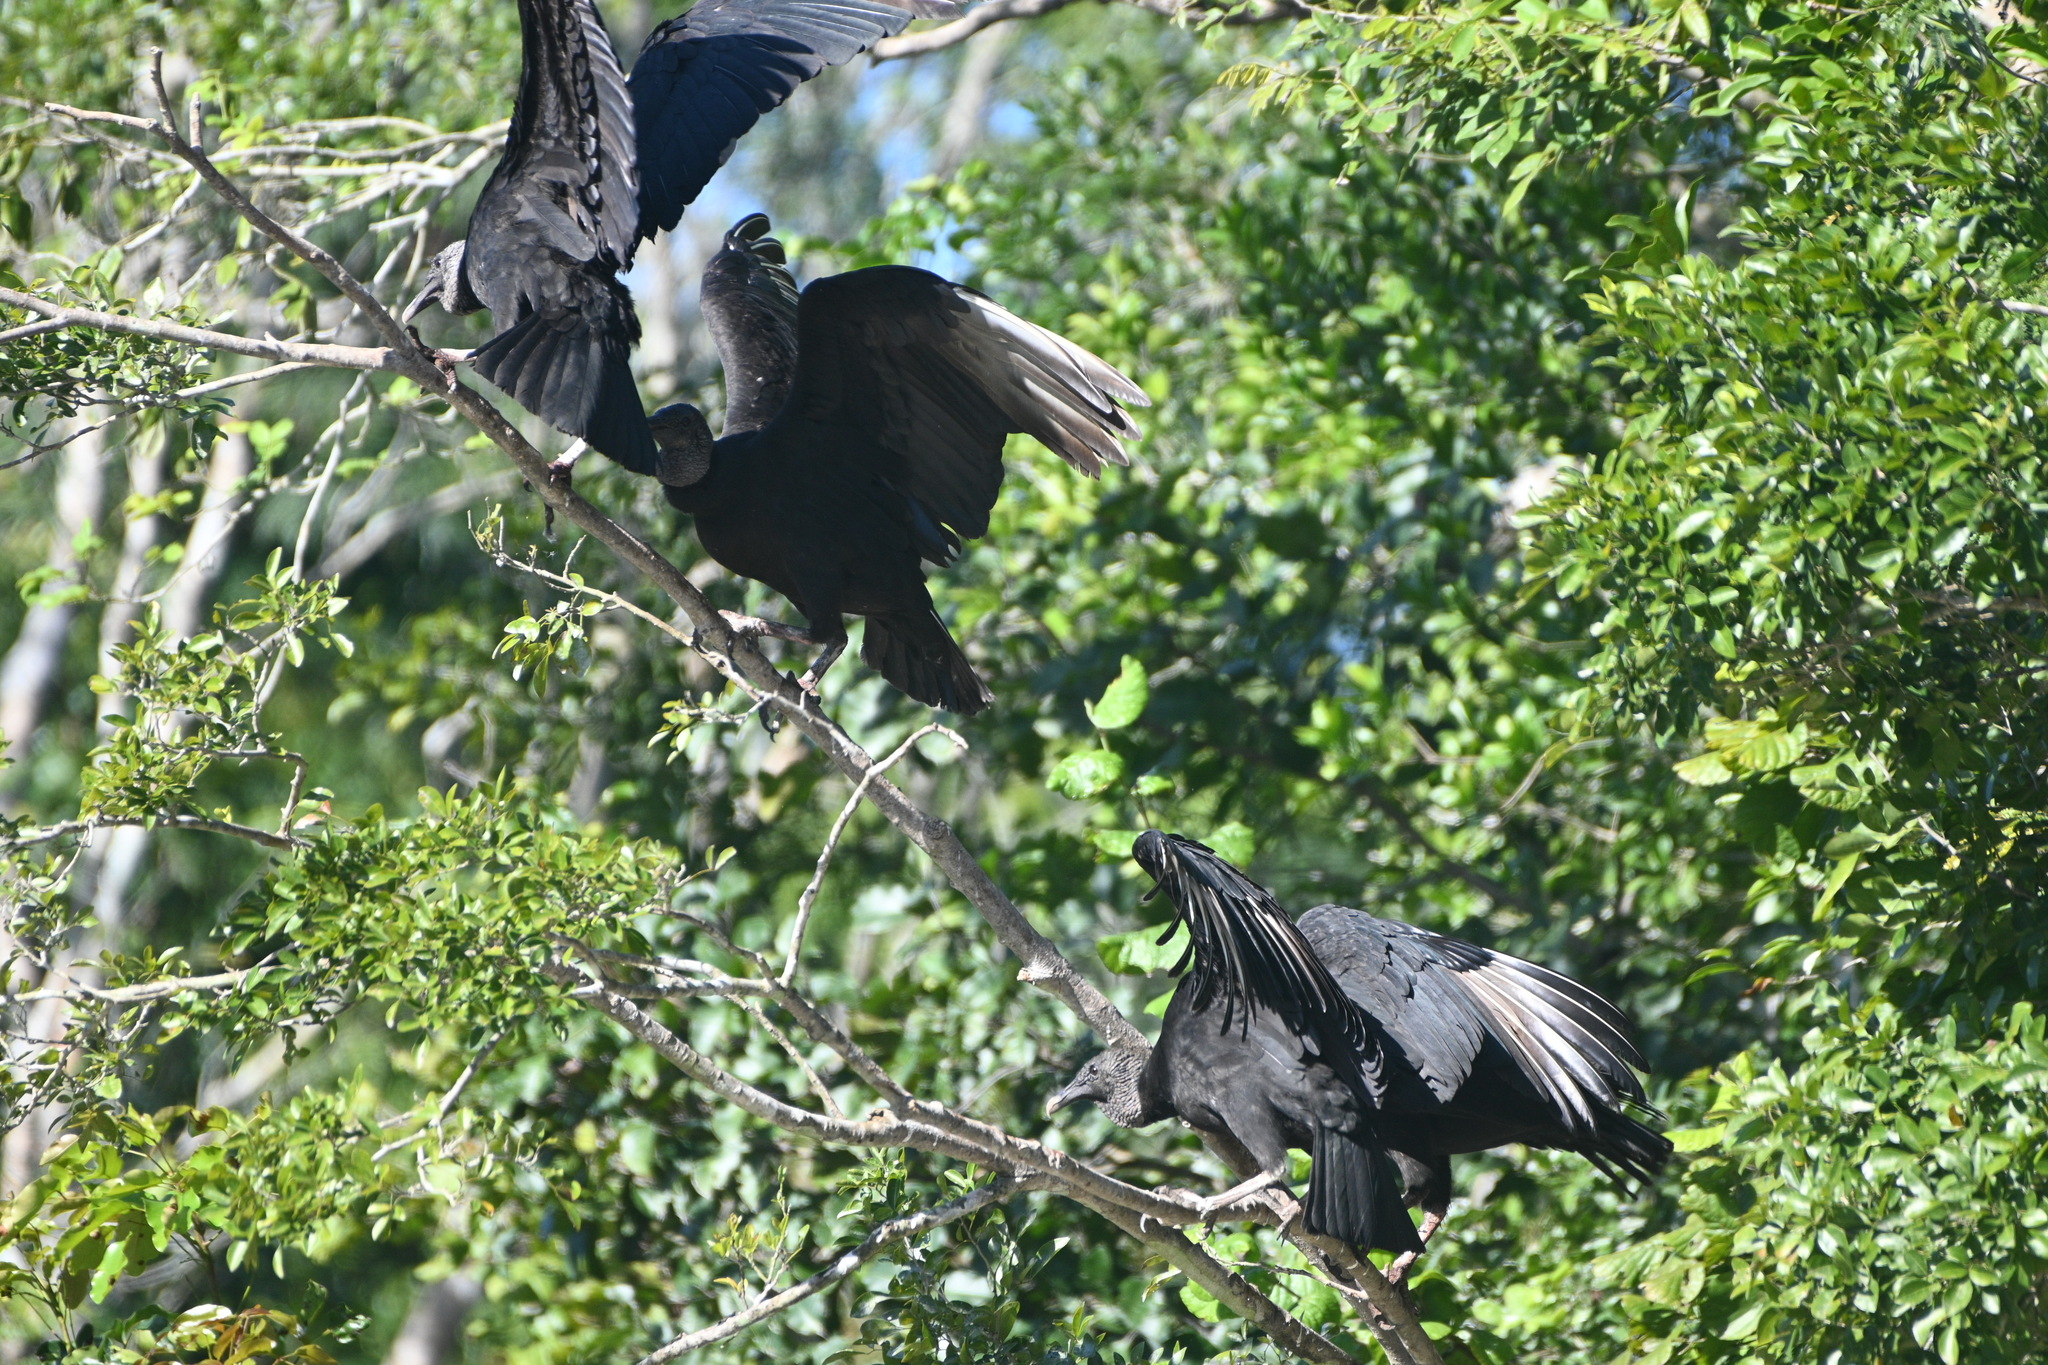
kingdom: Animalia
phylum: Chordata
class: Aves
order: Accipitriformes
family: Cathartidae
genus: Coragyps
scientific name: Coragyps atratus
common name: Black vulture
